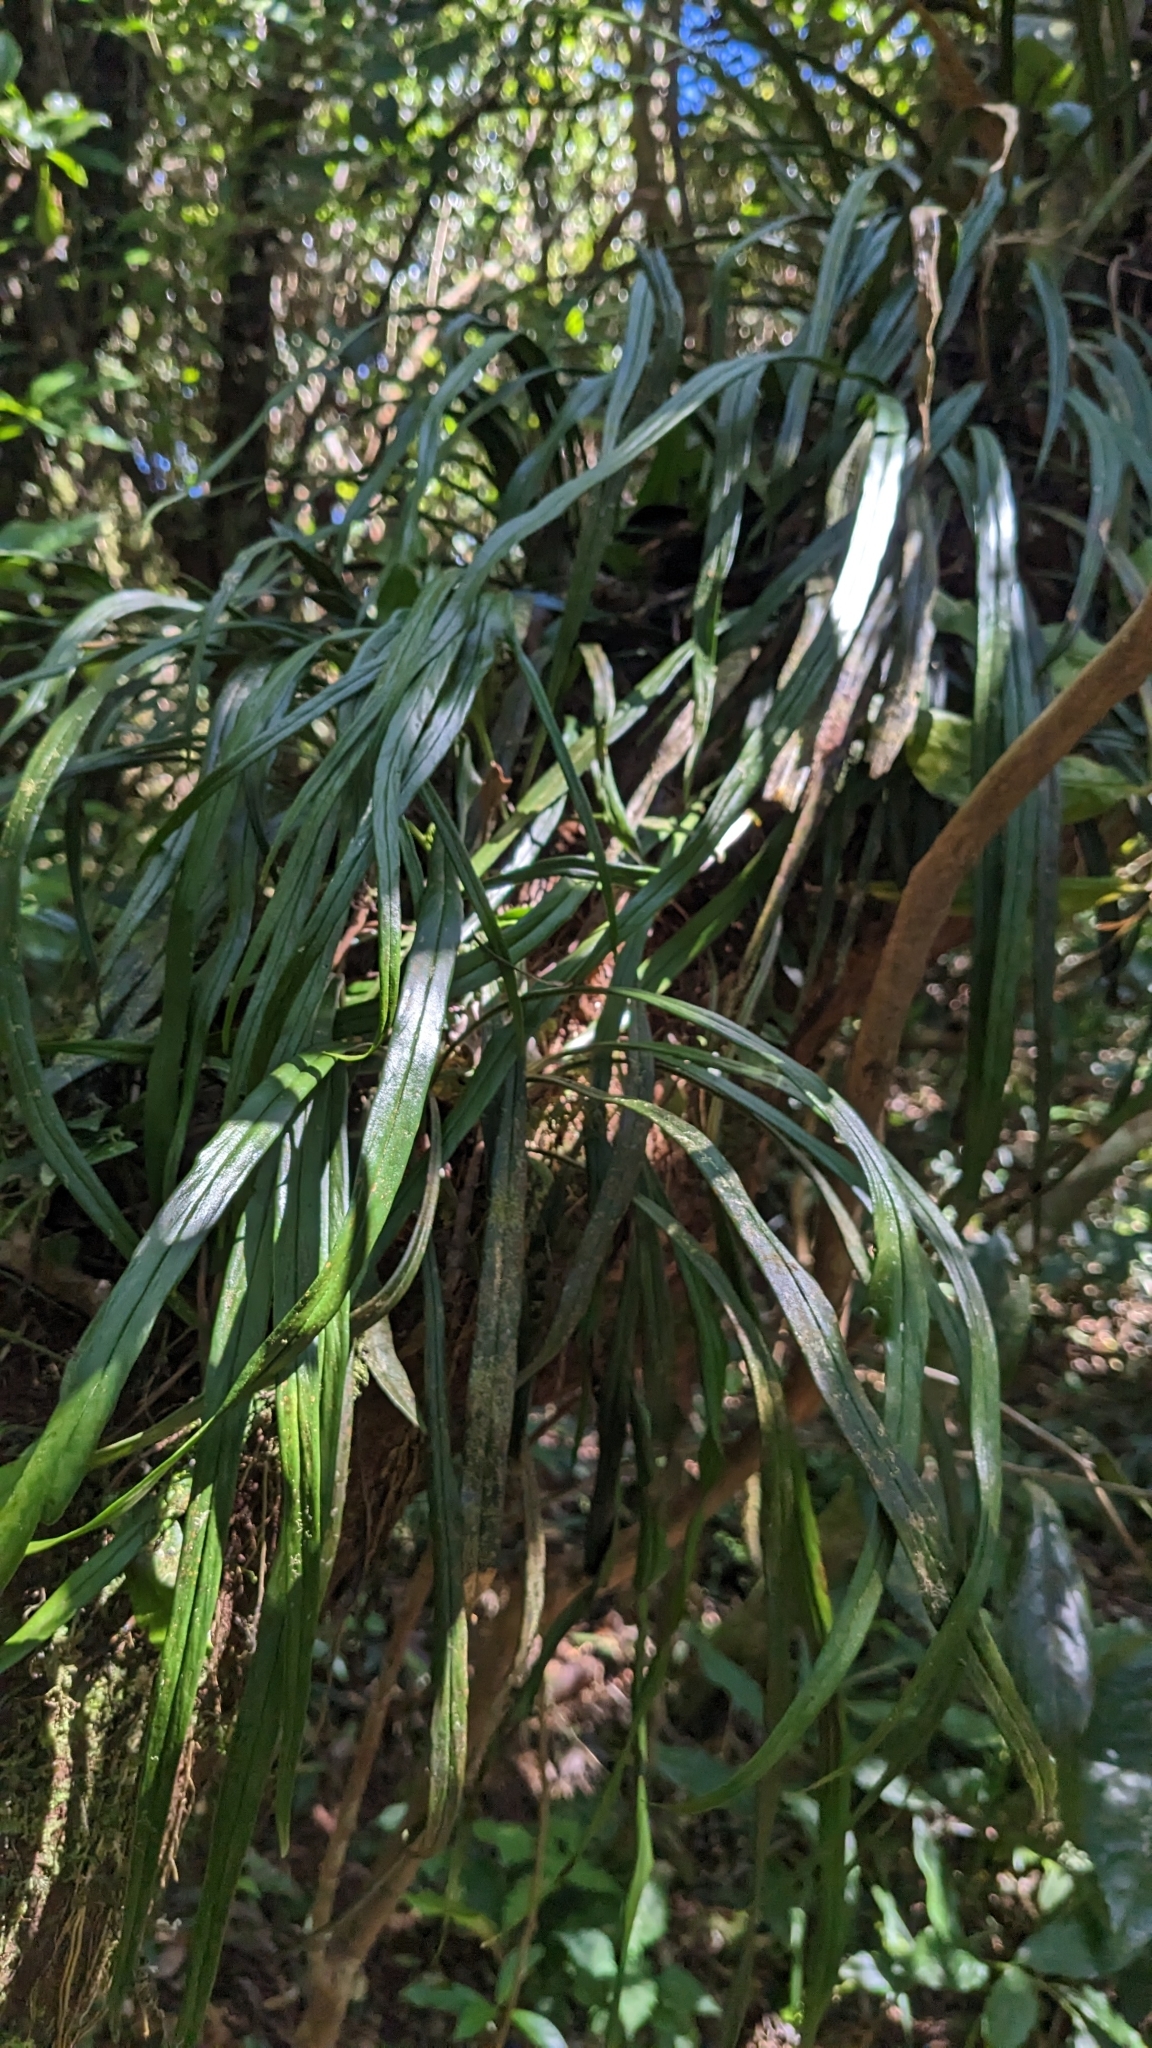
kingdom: Plantae
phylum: Tracheophyta
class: Polypodiopsida
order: Polypodiales
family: Pteridaceae
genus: Haplopteris
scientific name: Haplopteris flexuosa
